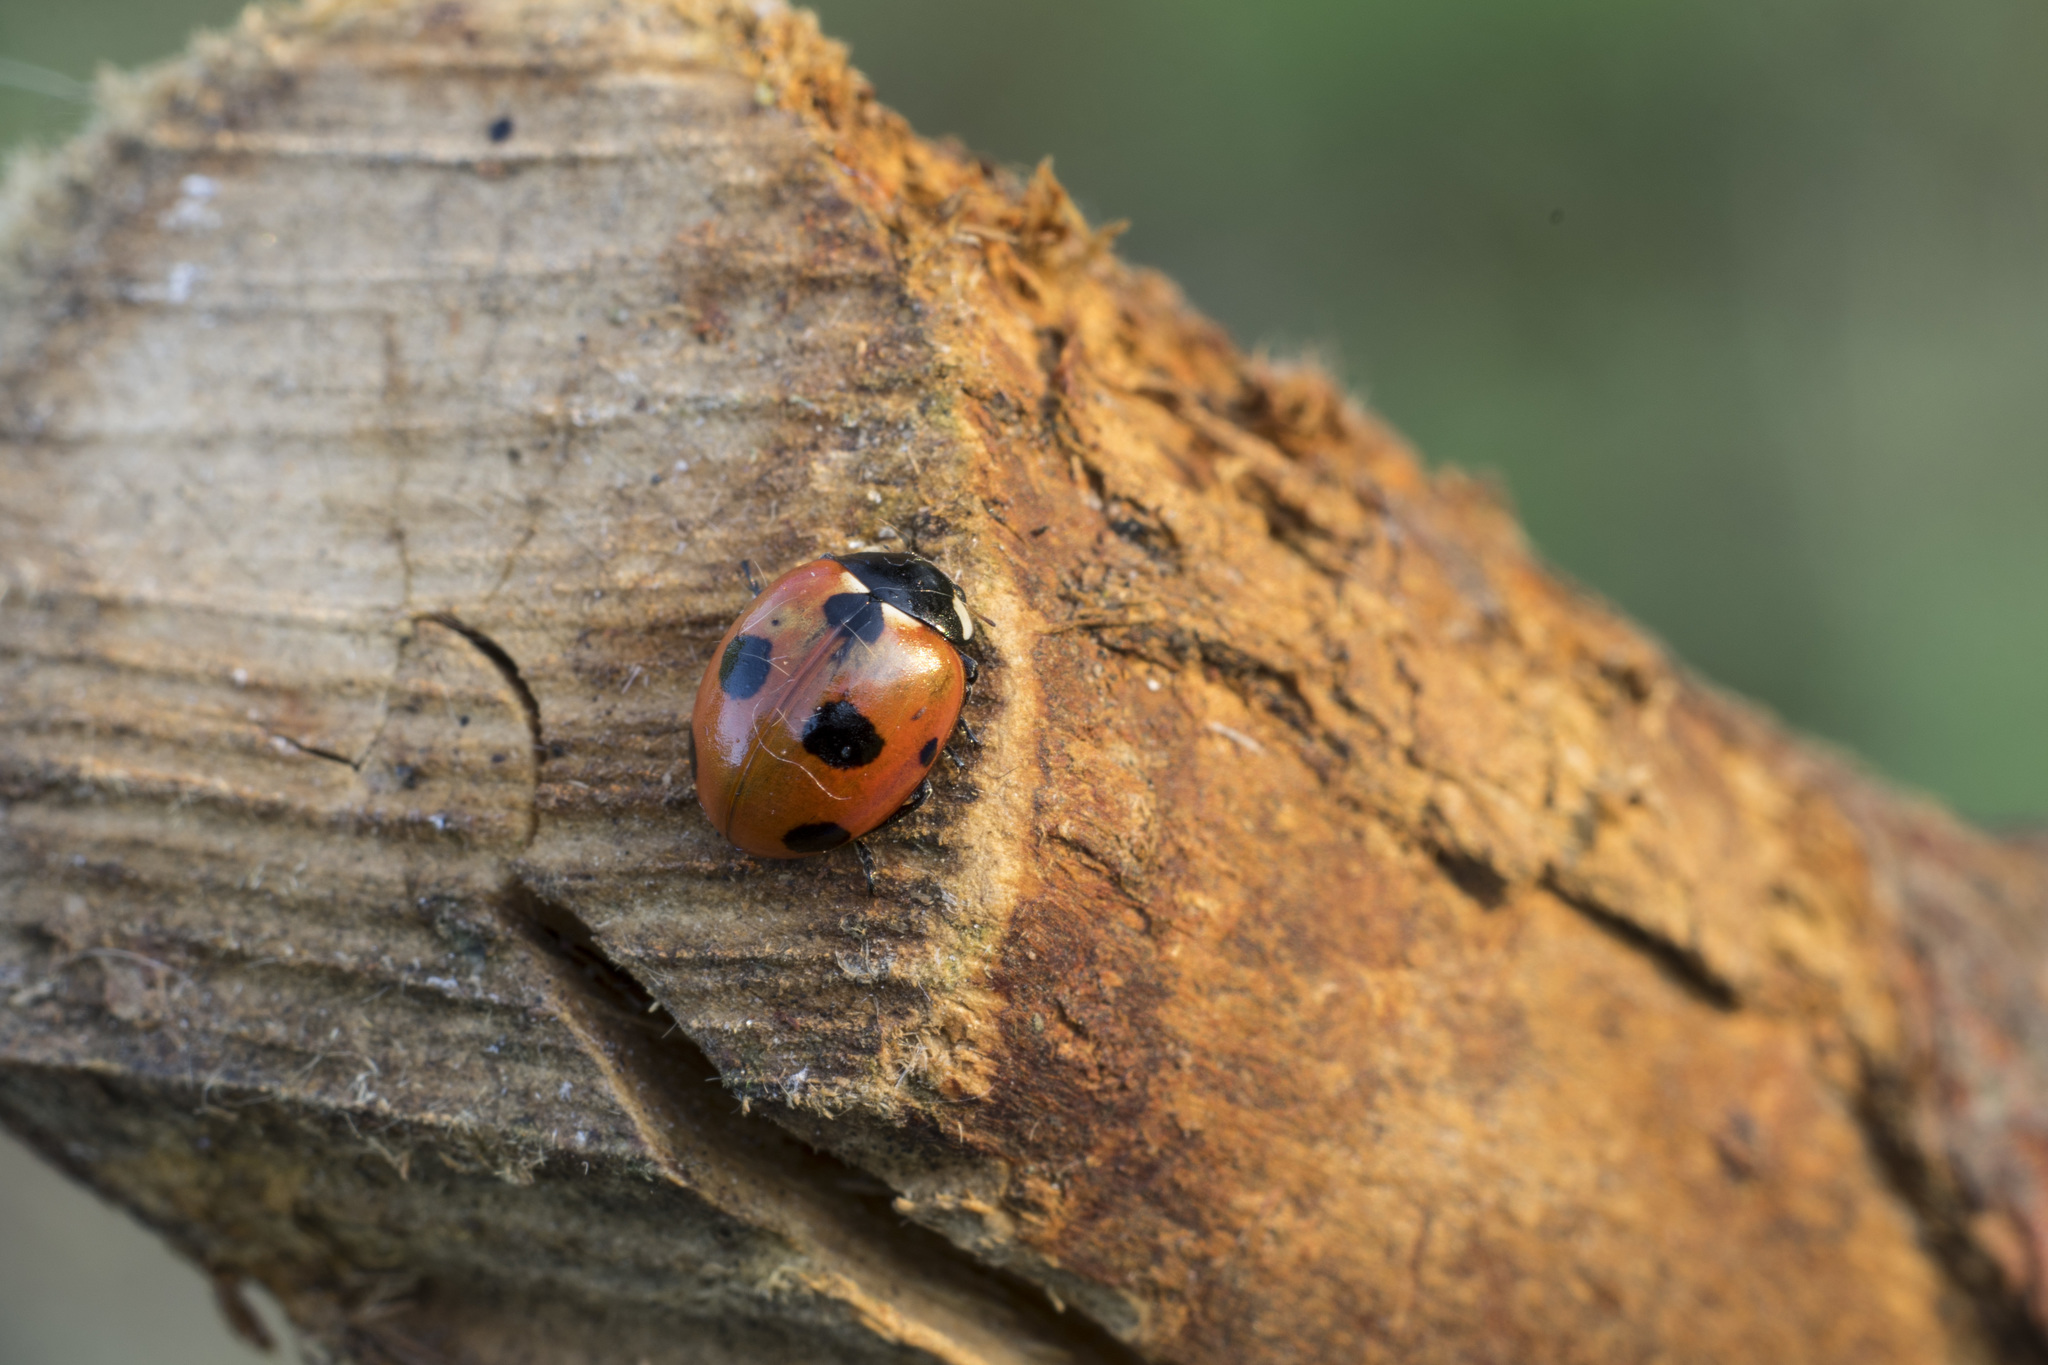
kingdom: Animalia
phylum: Arthropoda
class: Insecta
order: Coleoptera
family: Coccinellidae
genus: Coccinella
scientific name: Coccinella magnifica
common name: Scarce 7-spot ladybird
